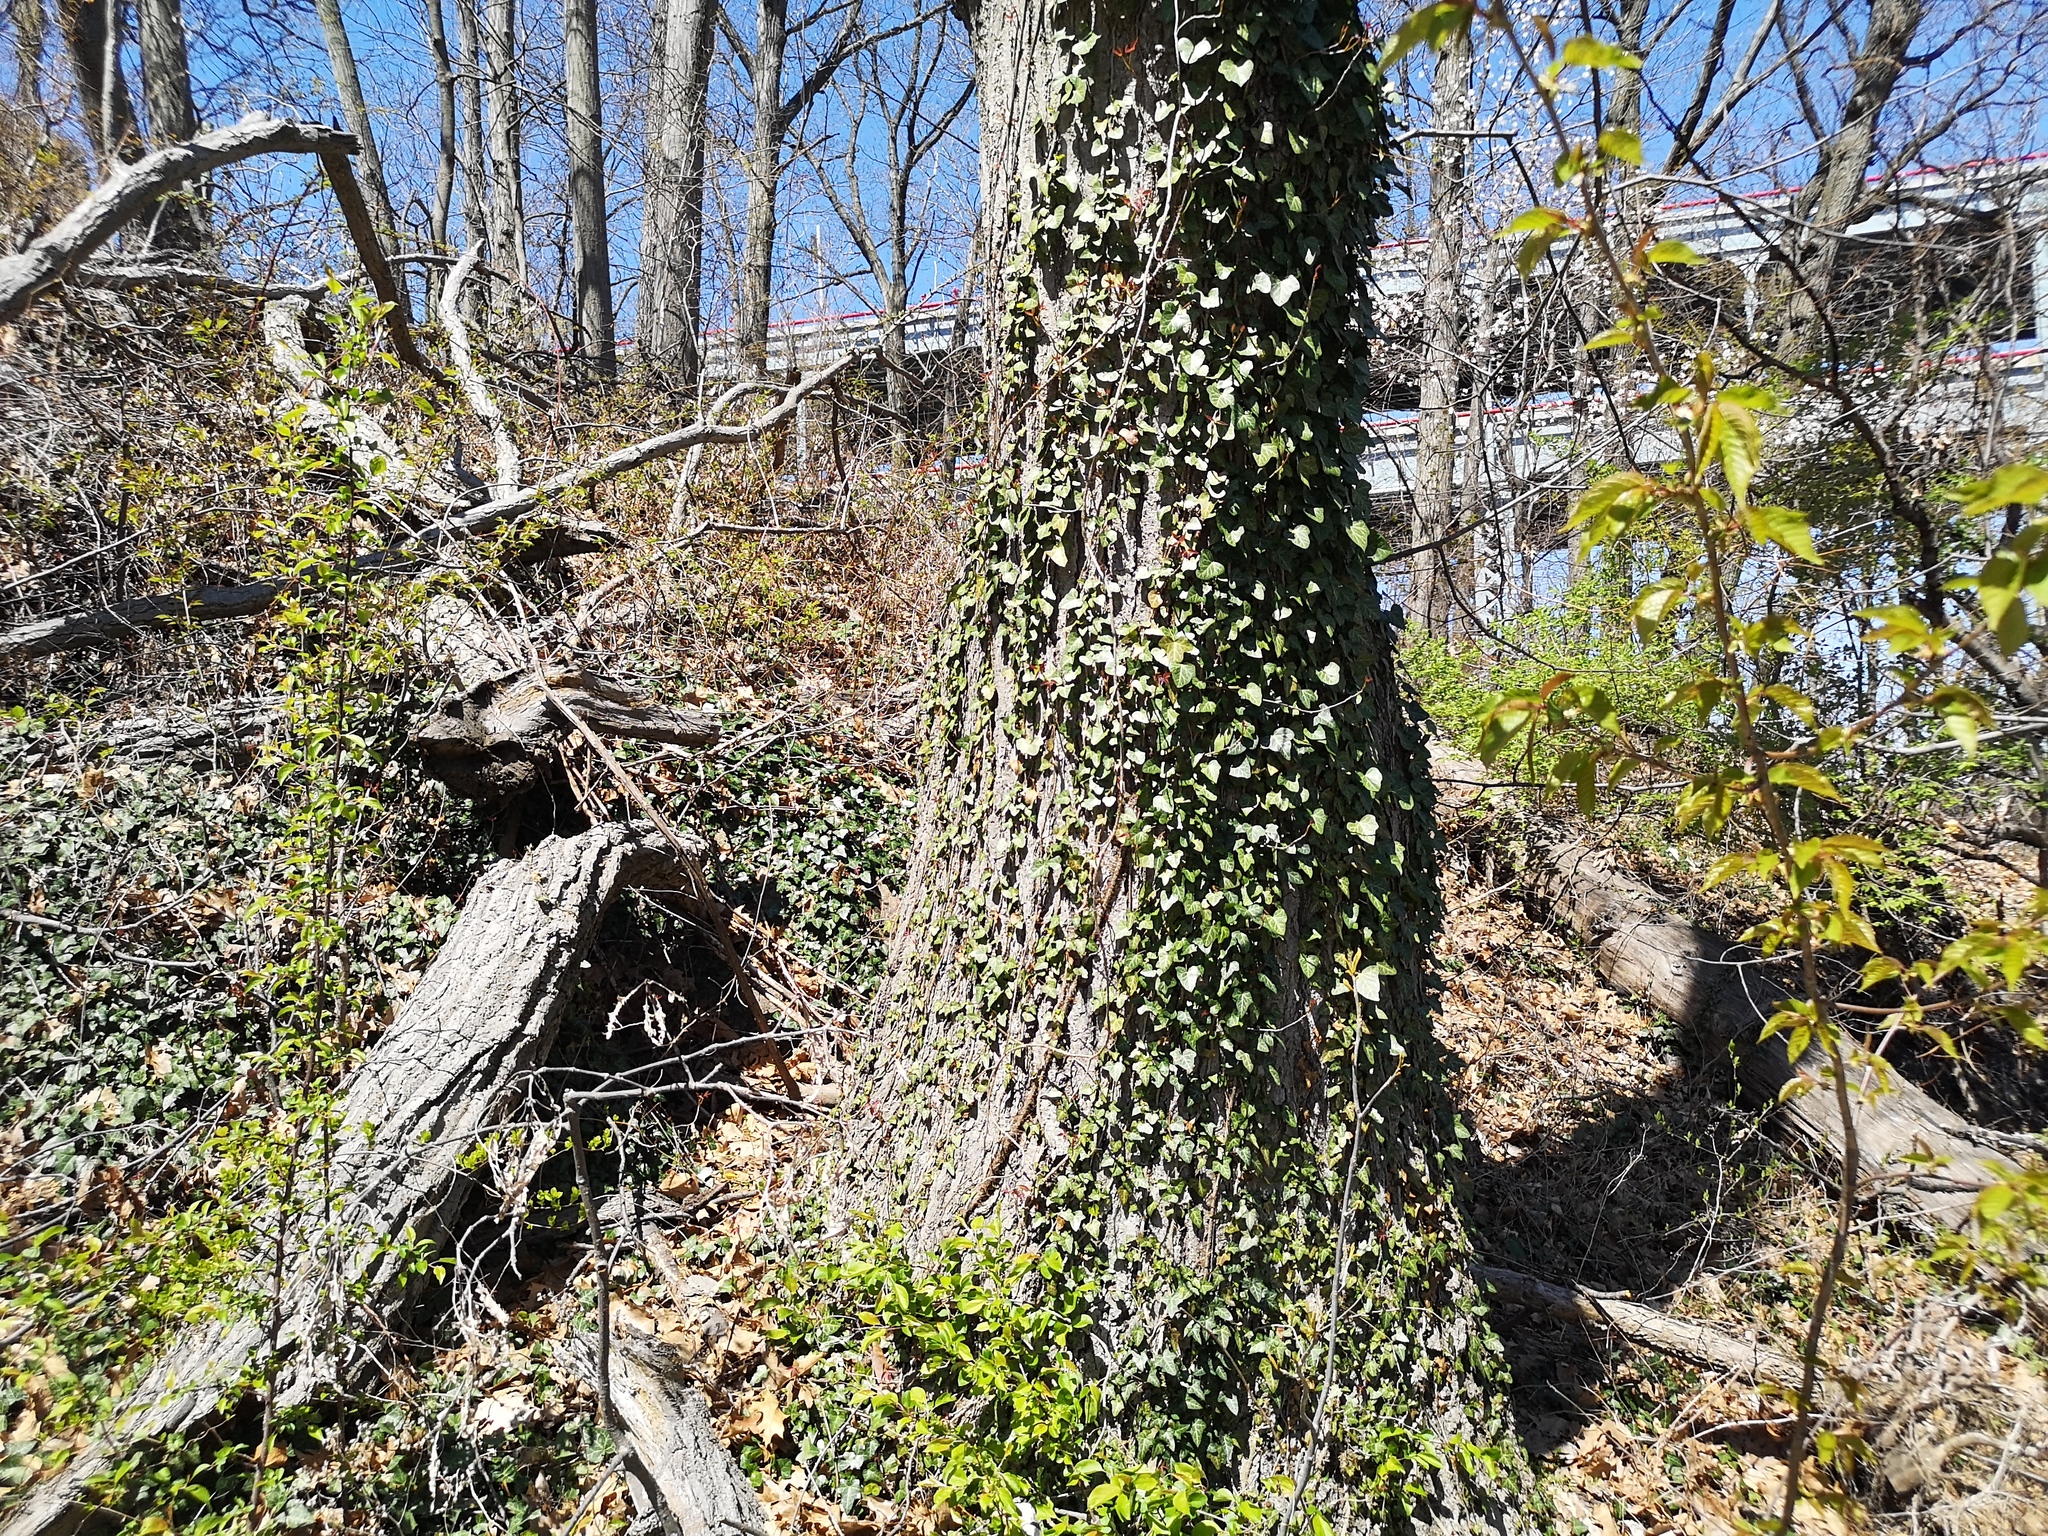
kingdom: Plantae
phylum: Tracheophyta
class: Magnoliopsida
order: Apiales
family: Araliaceae
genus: Hedera
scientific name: Hedera helix
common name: Ivy
